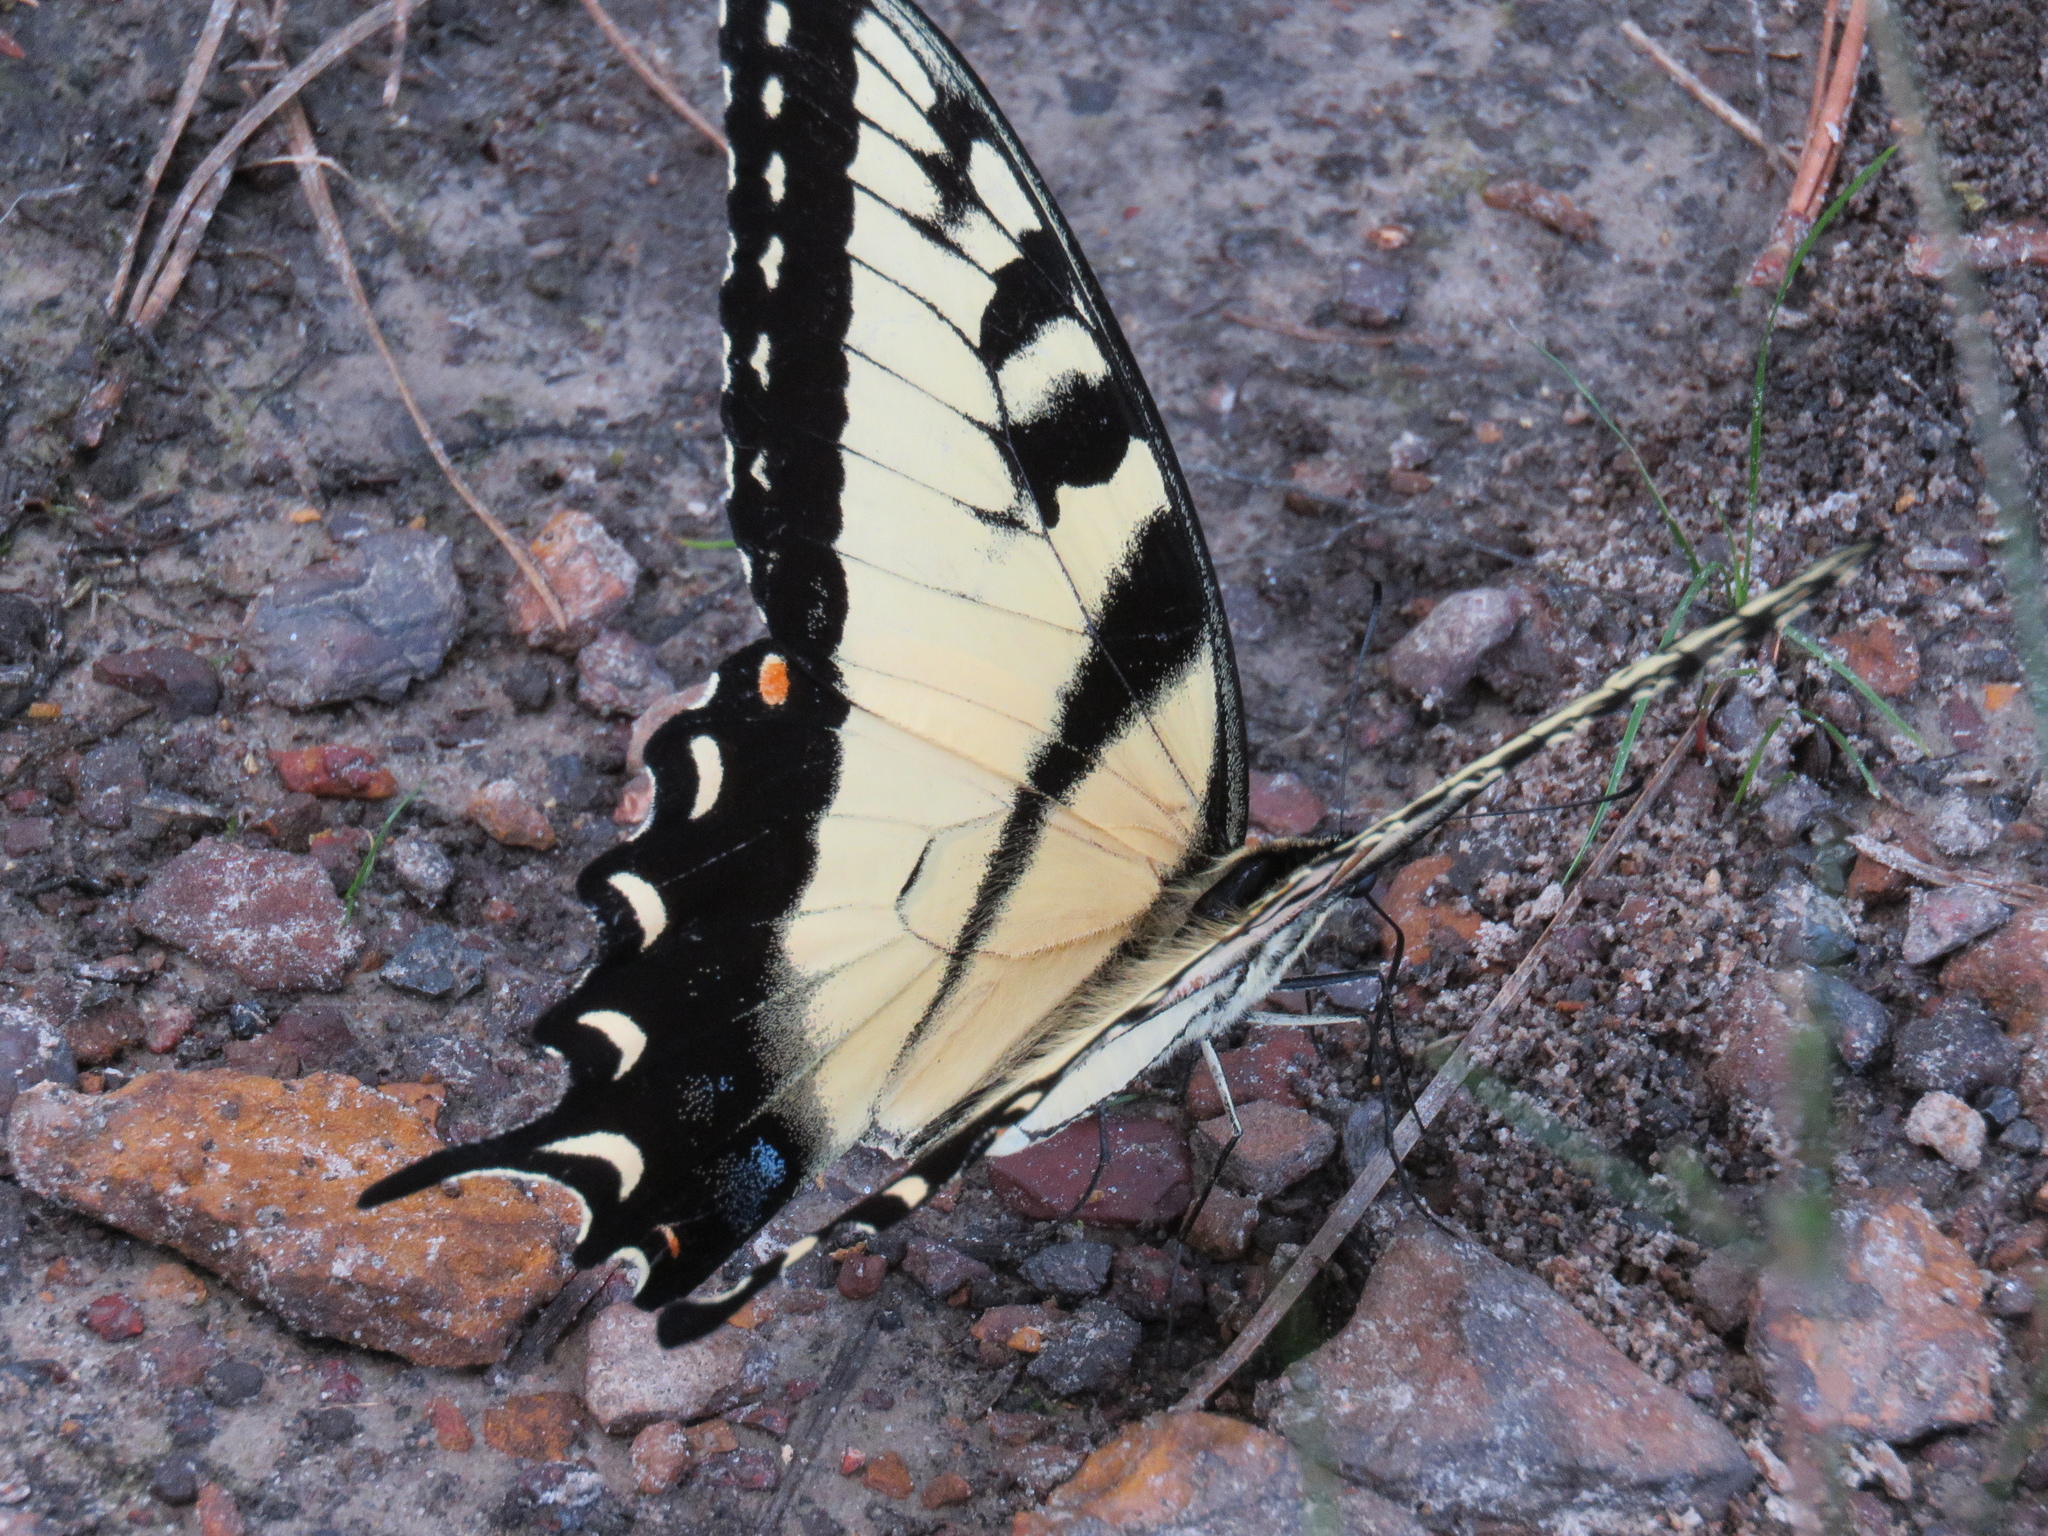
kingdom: Animalia
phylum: Arthropoda
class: Insecta
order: Lepidoptera
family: Papilionidae
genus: Papilio
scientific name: Papilio glaucus
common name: Tiger swallowtail
